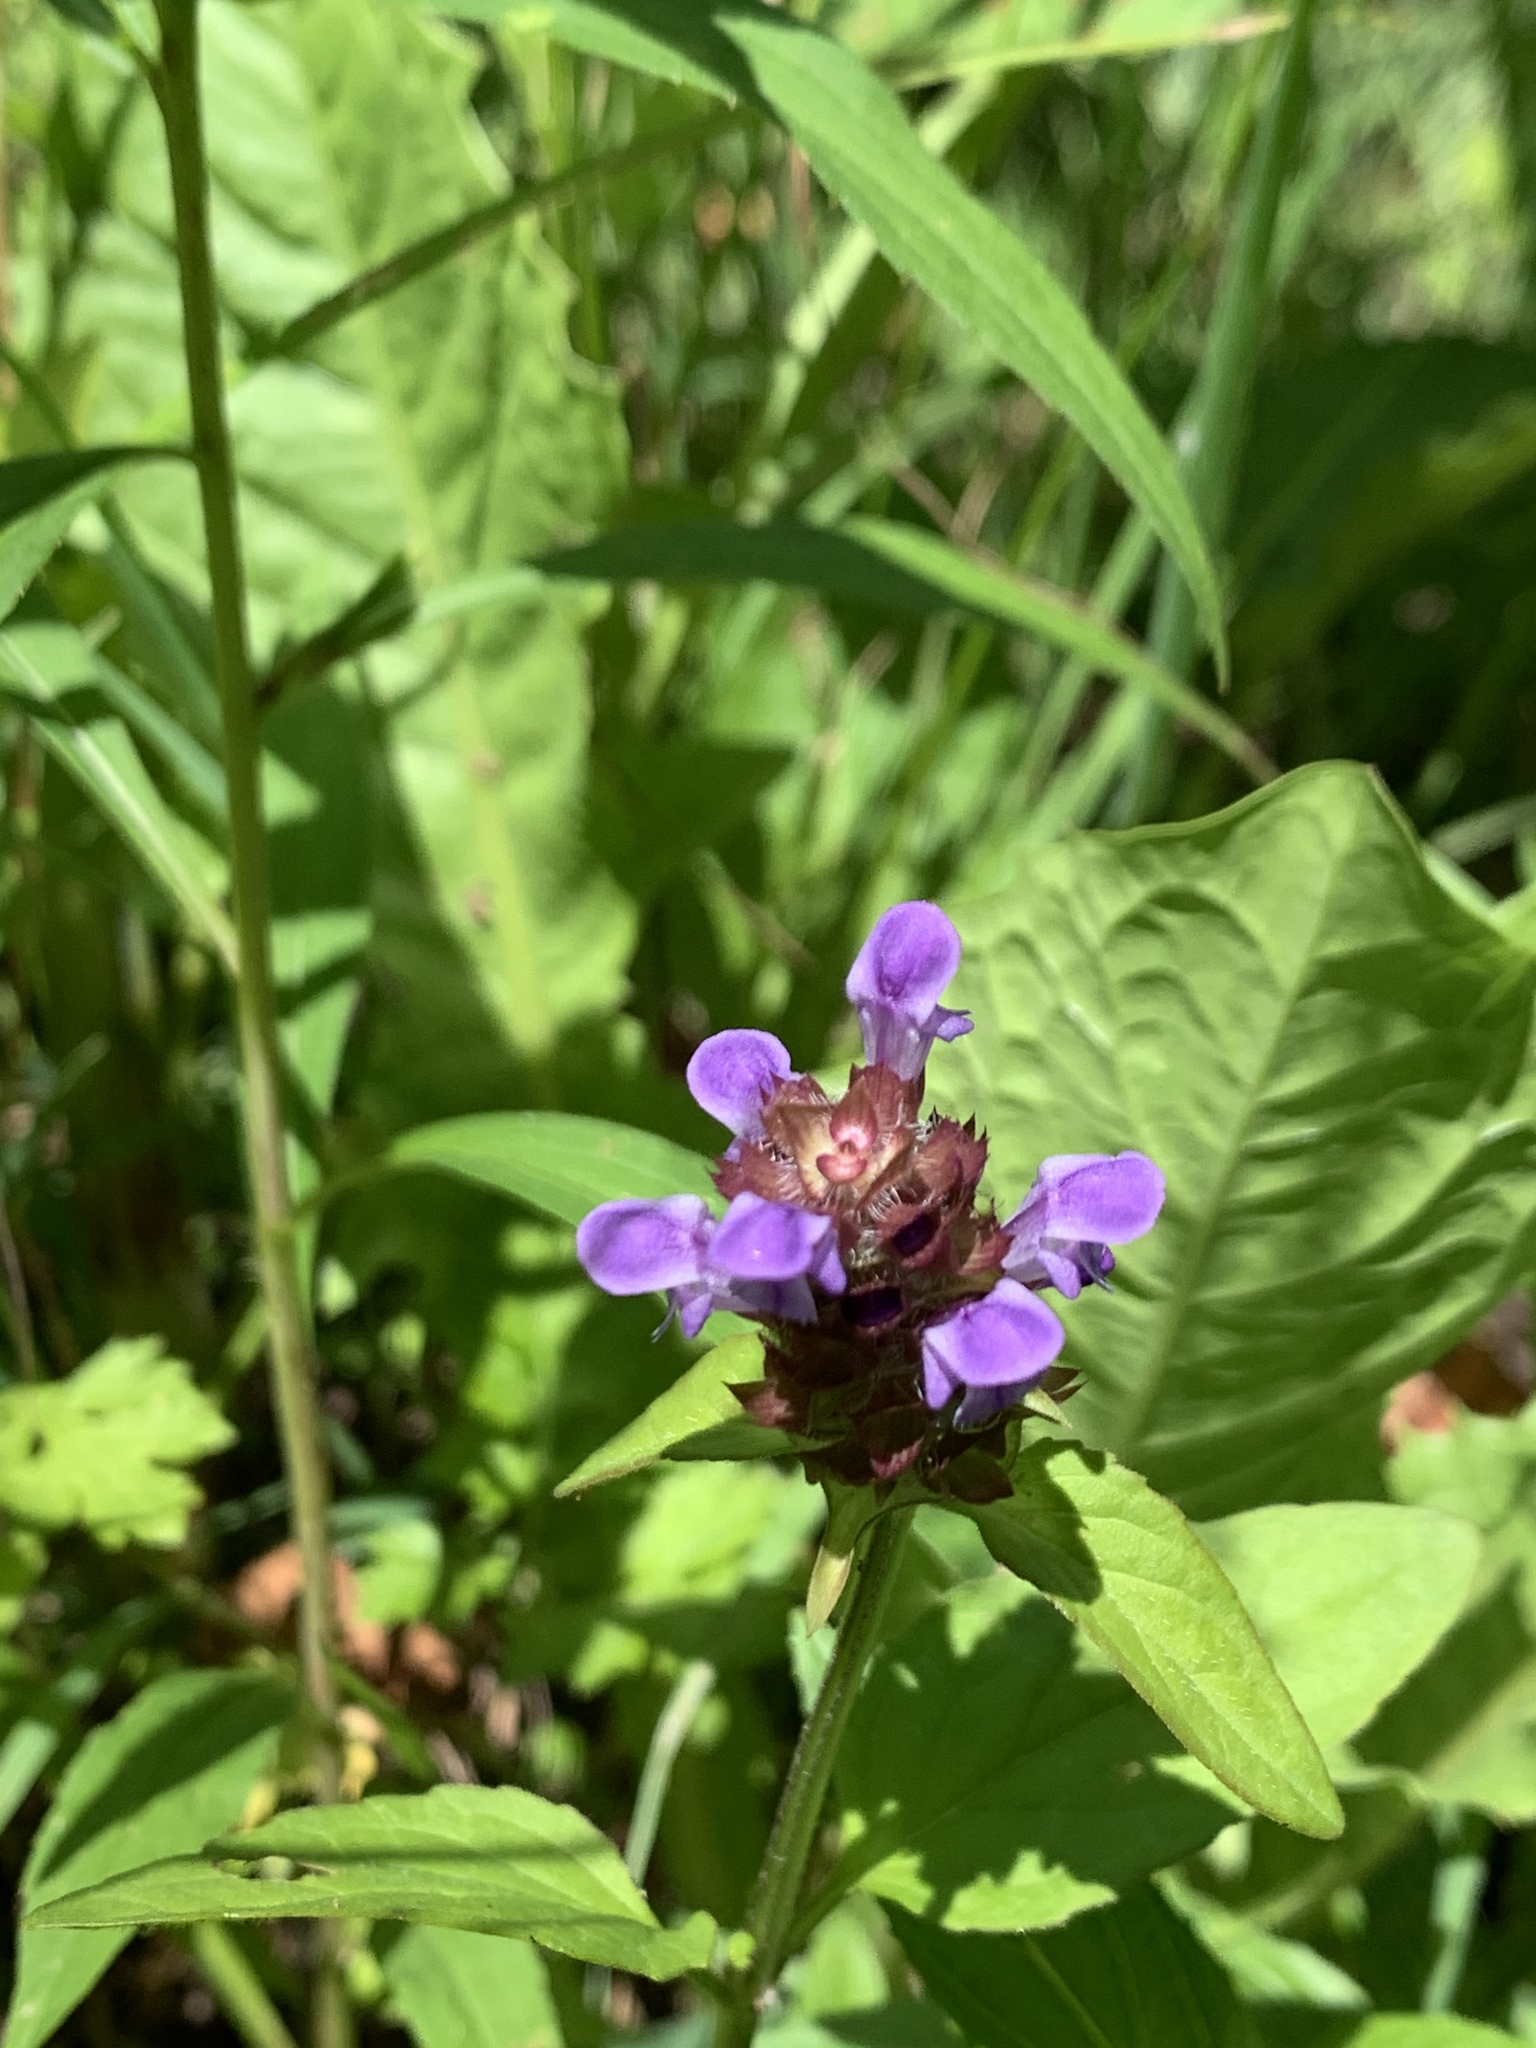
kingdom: Plantae
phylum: Tracheophyta
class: Magnoliopsida
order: Lamiales
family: Lamiaceae
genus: Prunella
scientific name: Prunella vulgaris
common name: Heal-all
